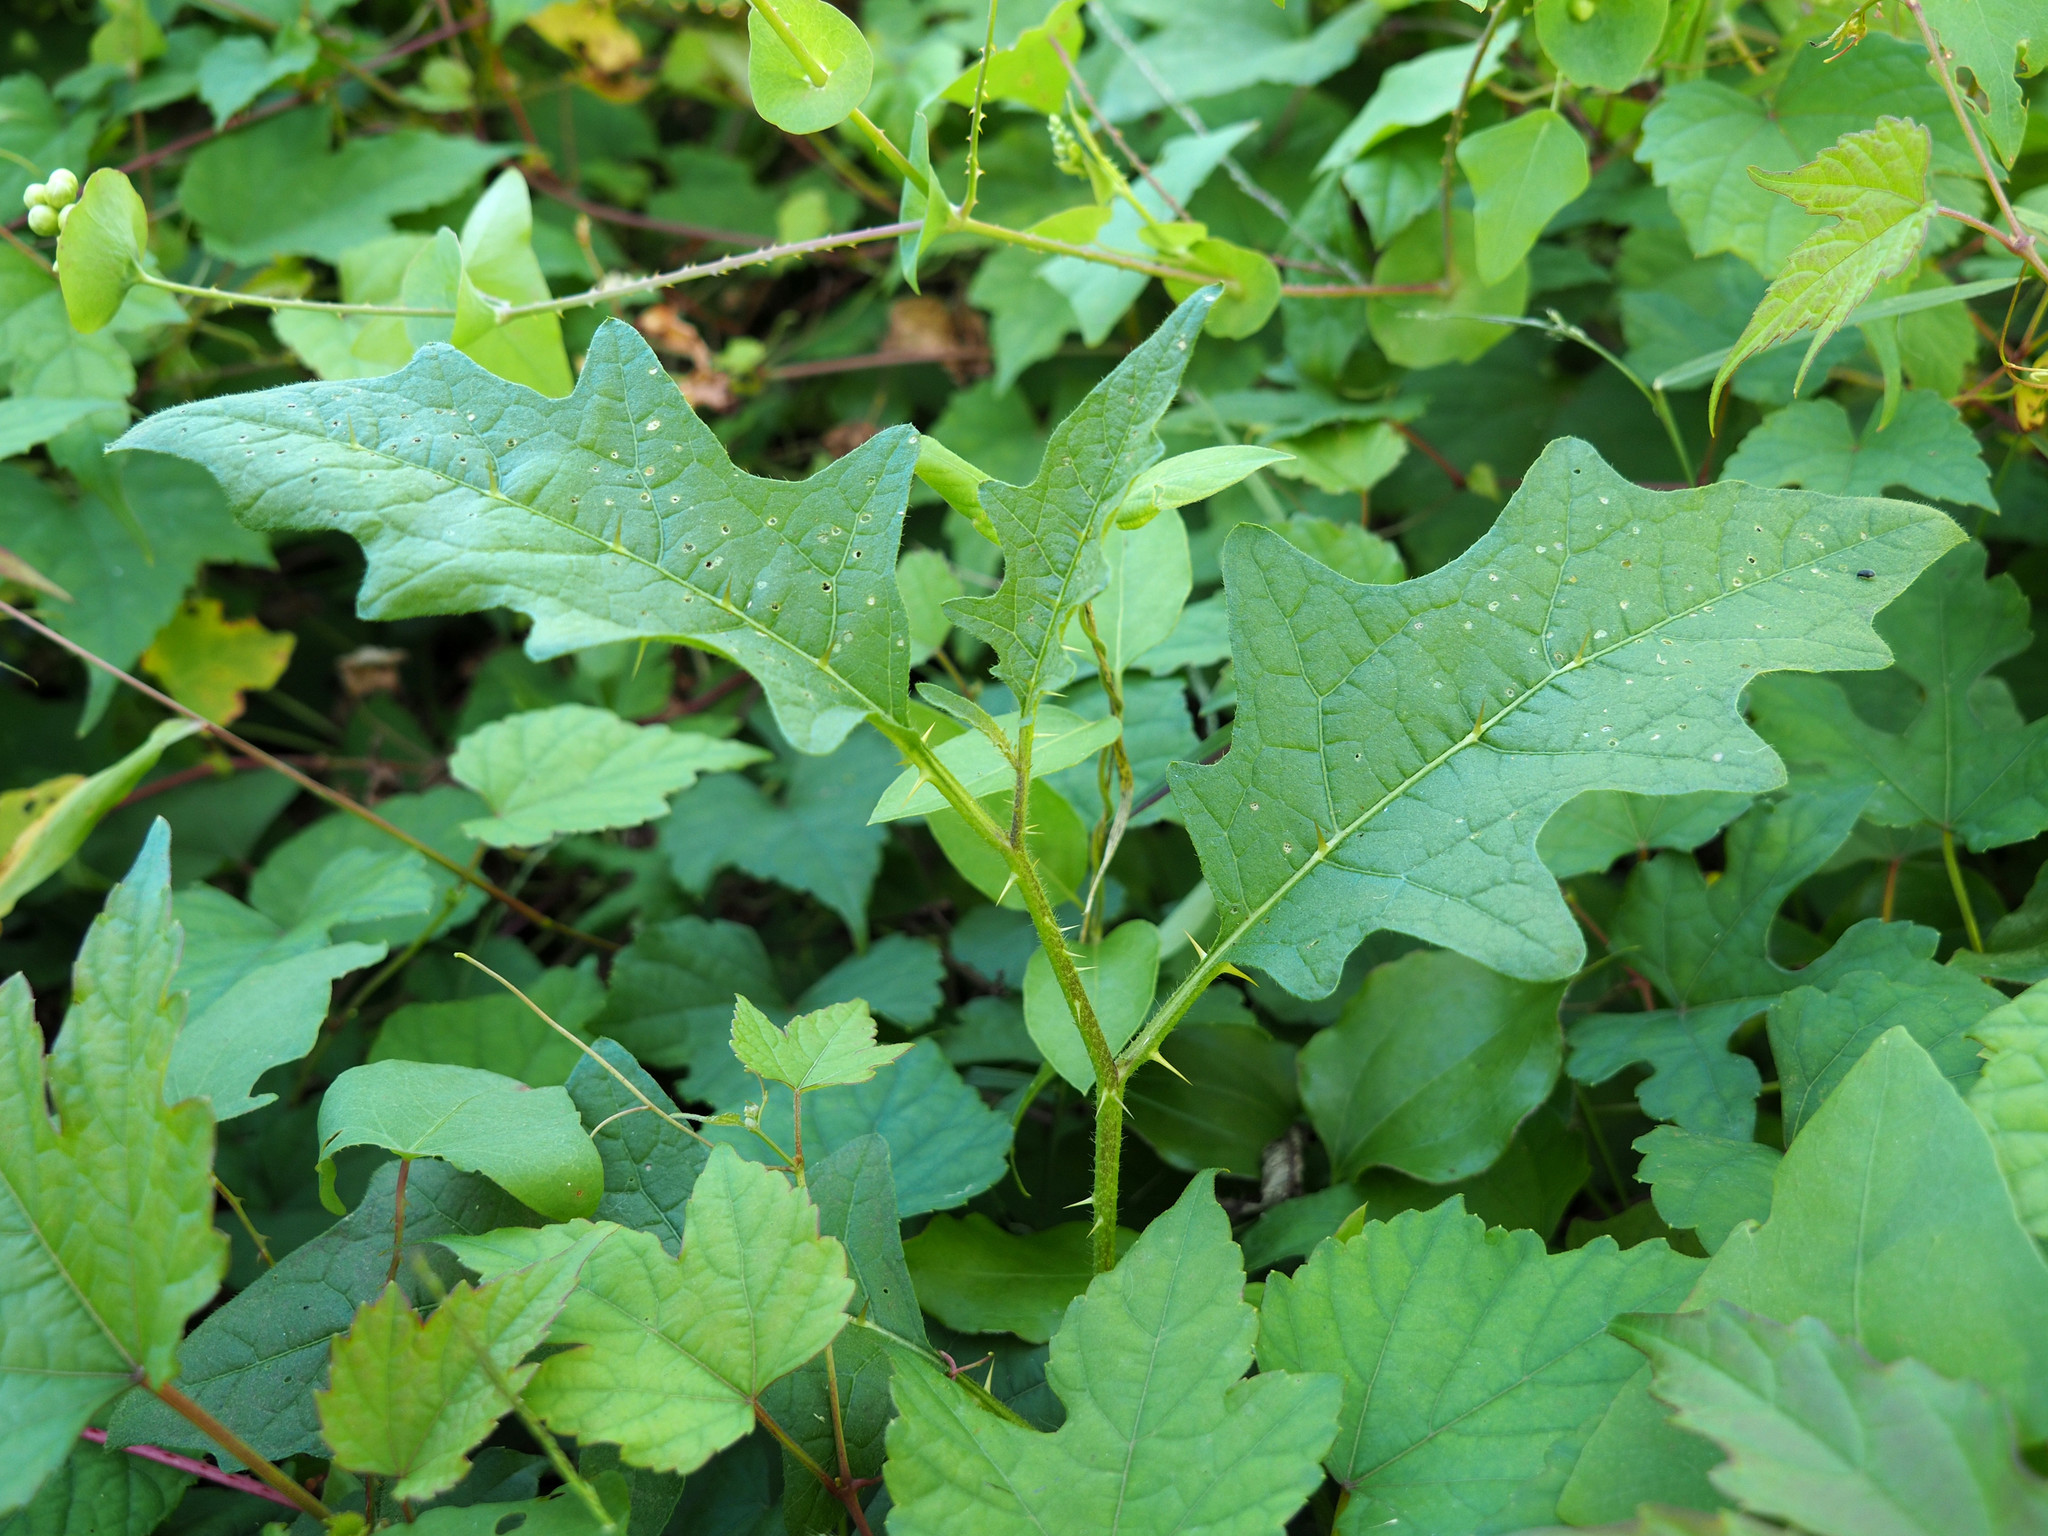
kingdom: Plantae
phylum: Tracheophyta
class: Magnoliopsida
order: Solanales
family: Solanaceae
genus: Solanum
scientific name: Solanum carolinense
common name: Horse-nettle
